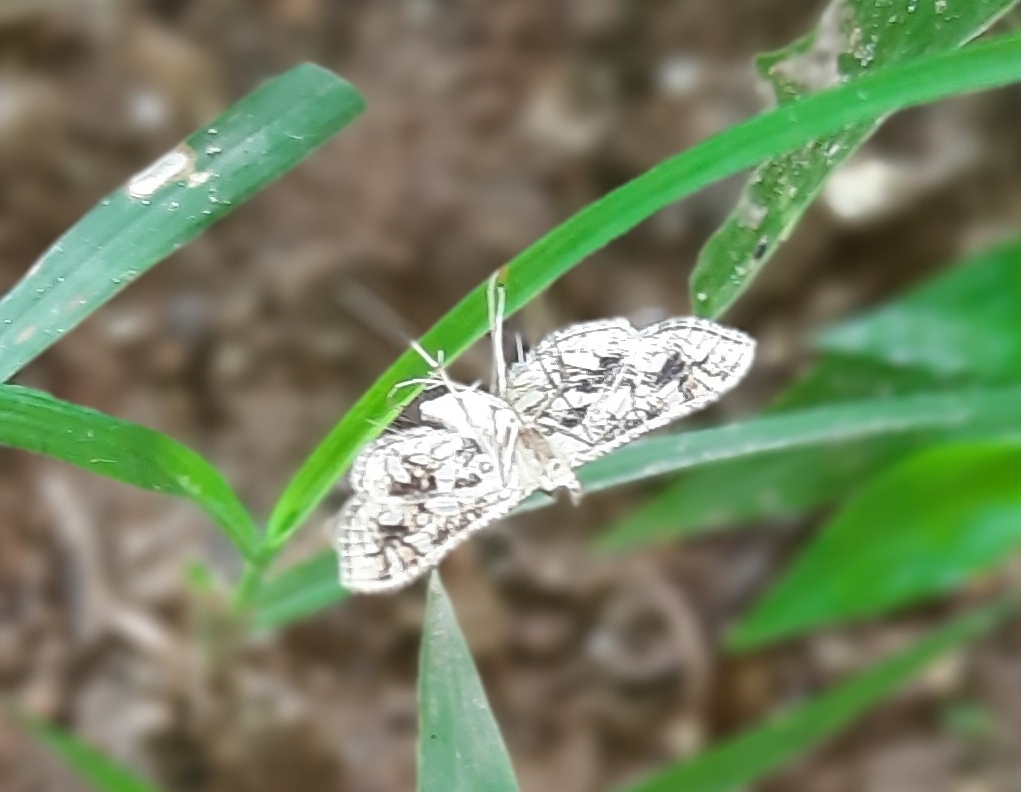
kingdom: Animalia
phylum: Arthropoda
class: Insecta
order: Lepidoptera
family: Crambidae
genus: Sameodes
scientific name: Sameodes cancellalis
